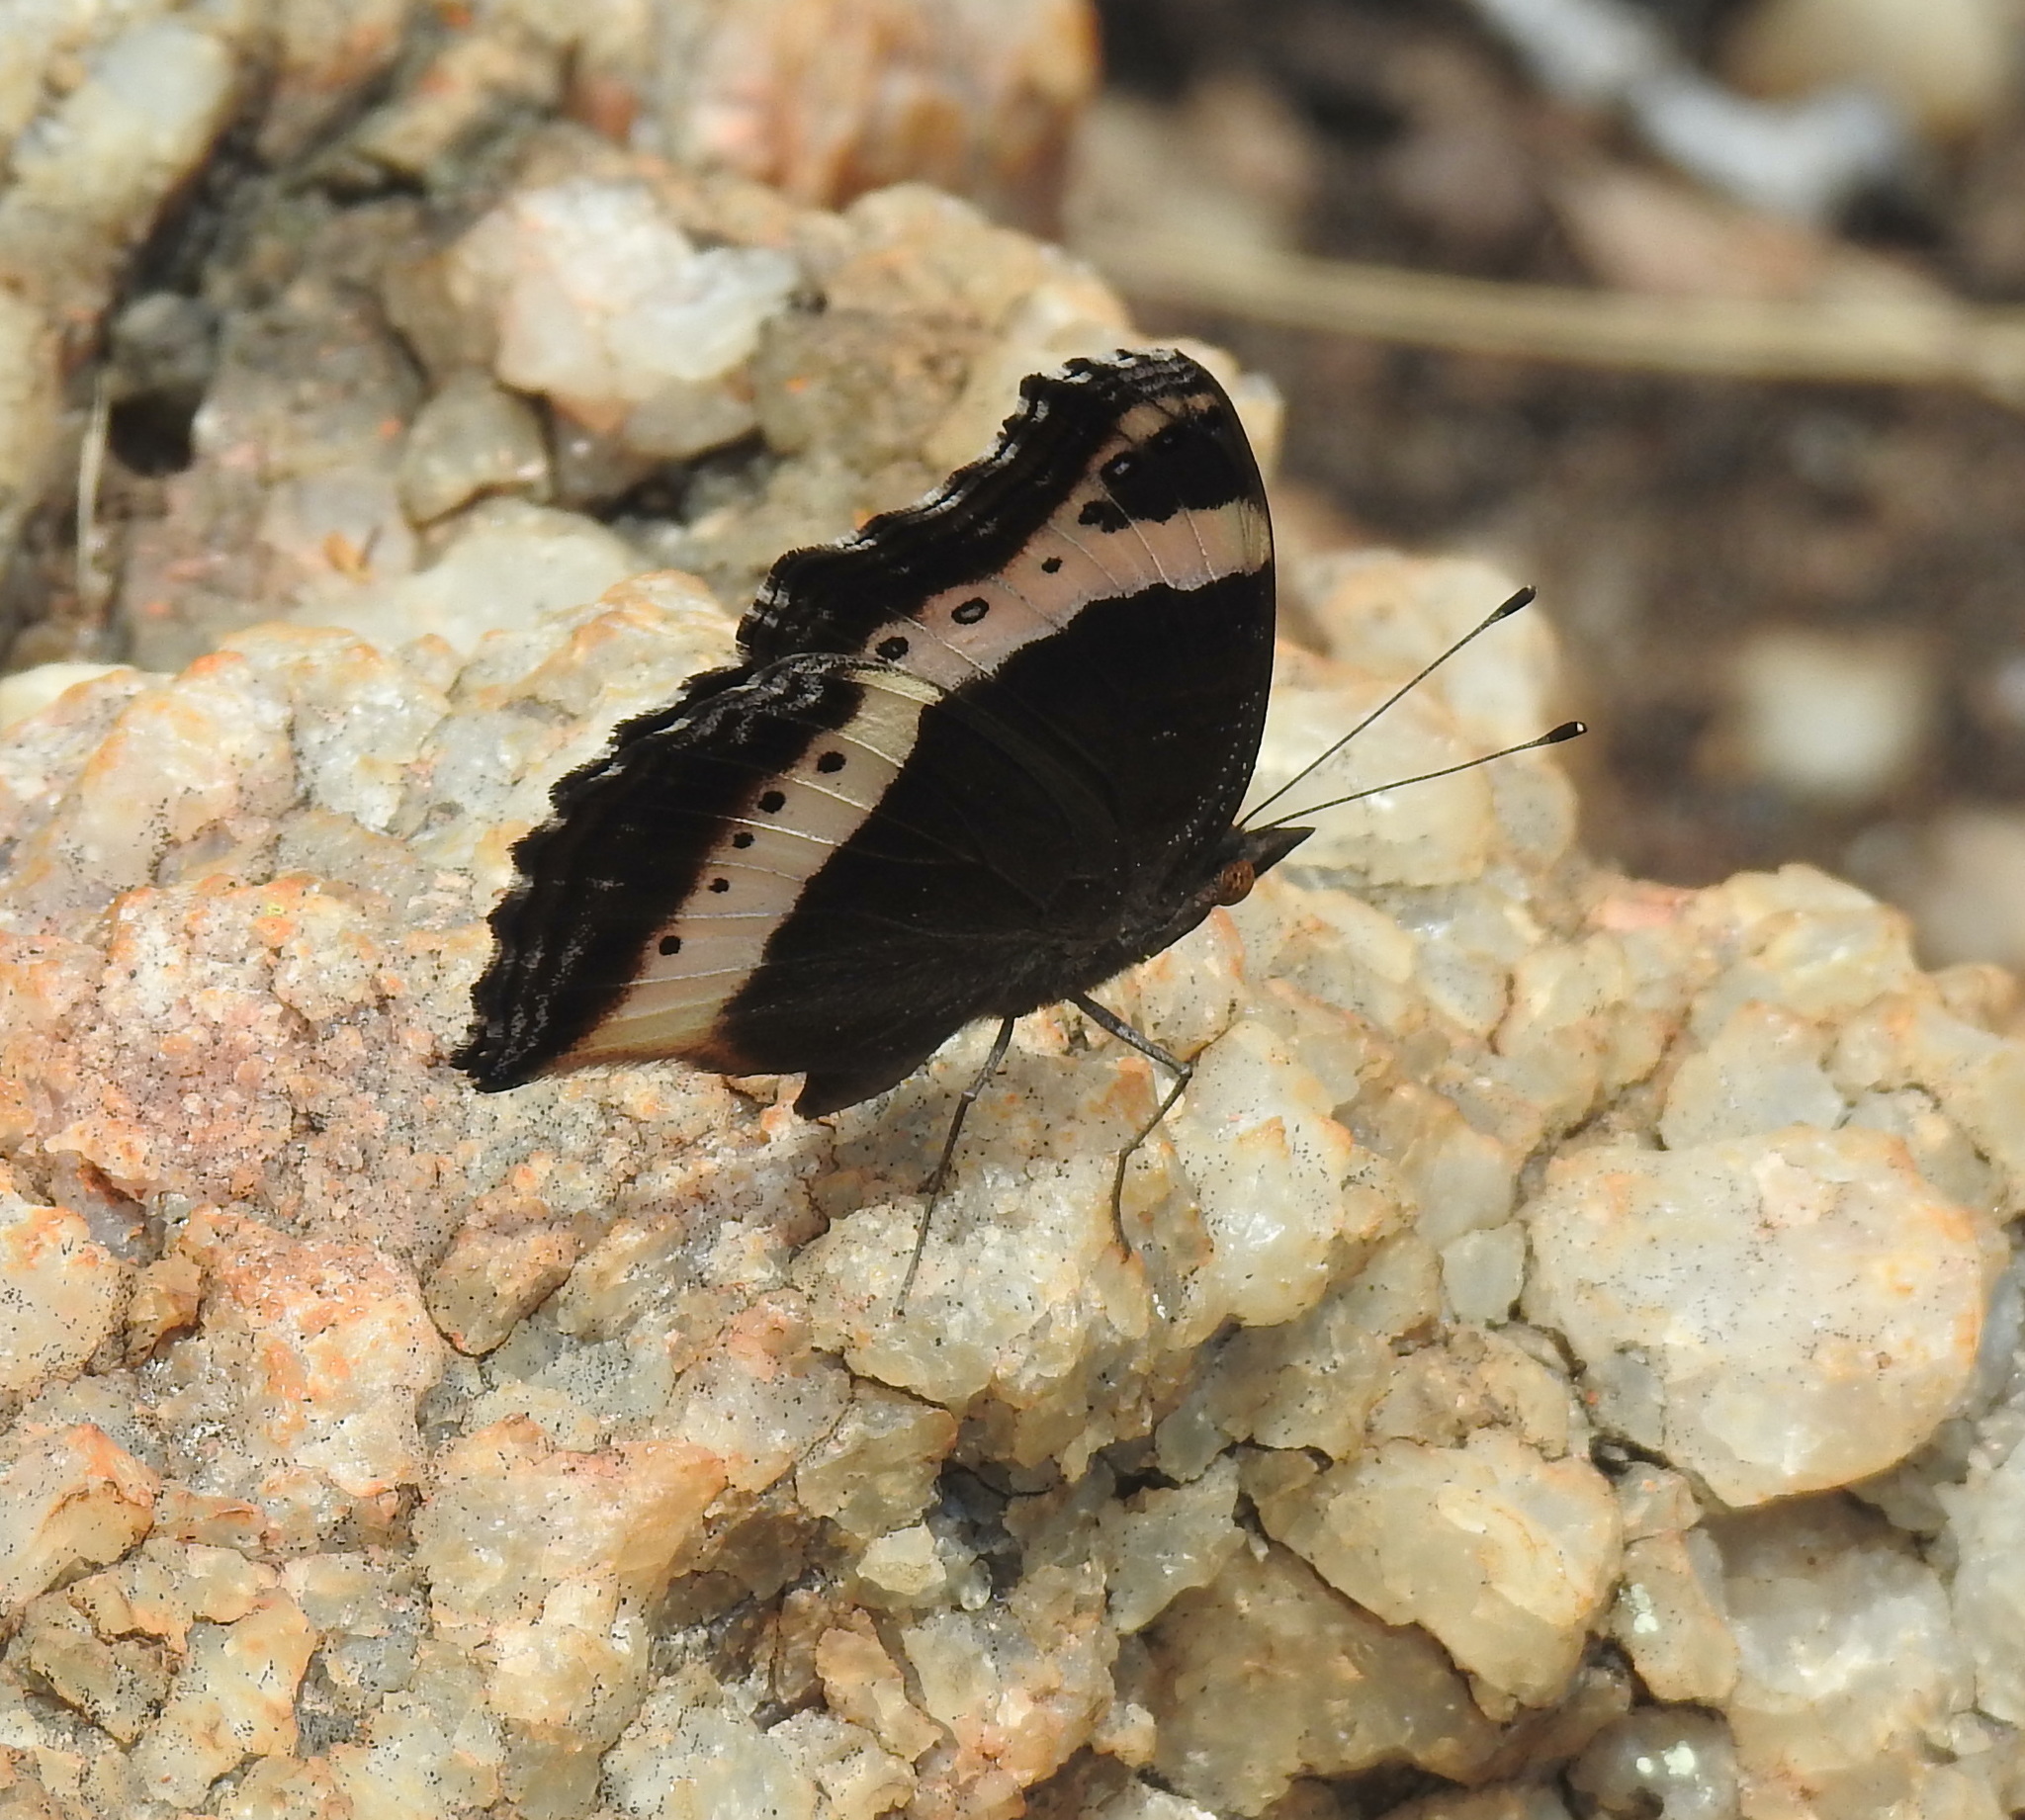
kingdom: Animalia
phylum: Arthropoda
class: Insecta
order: Lepidoptera
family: Nymphalidae
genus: Junonia
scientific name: Junonia archesia
